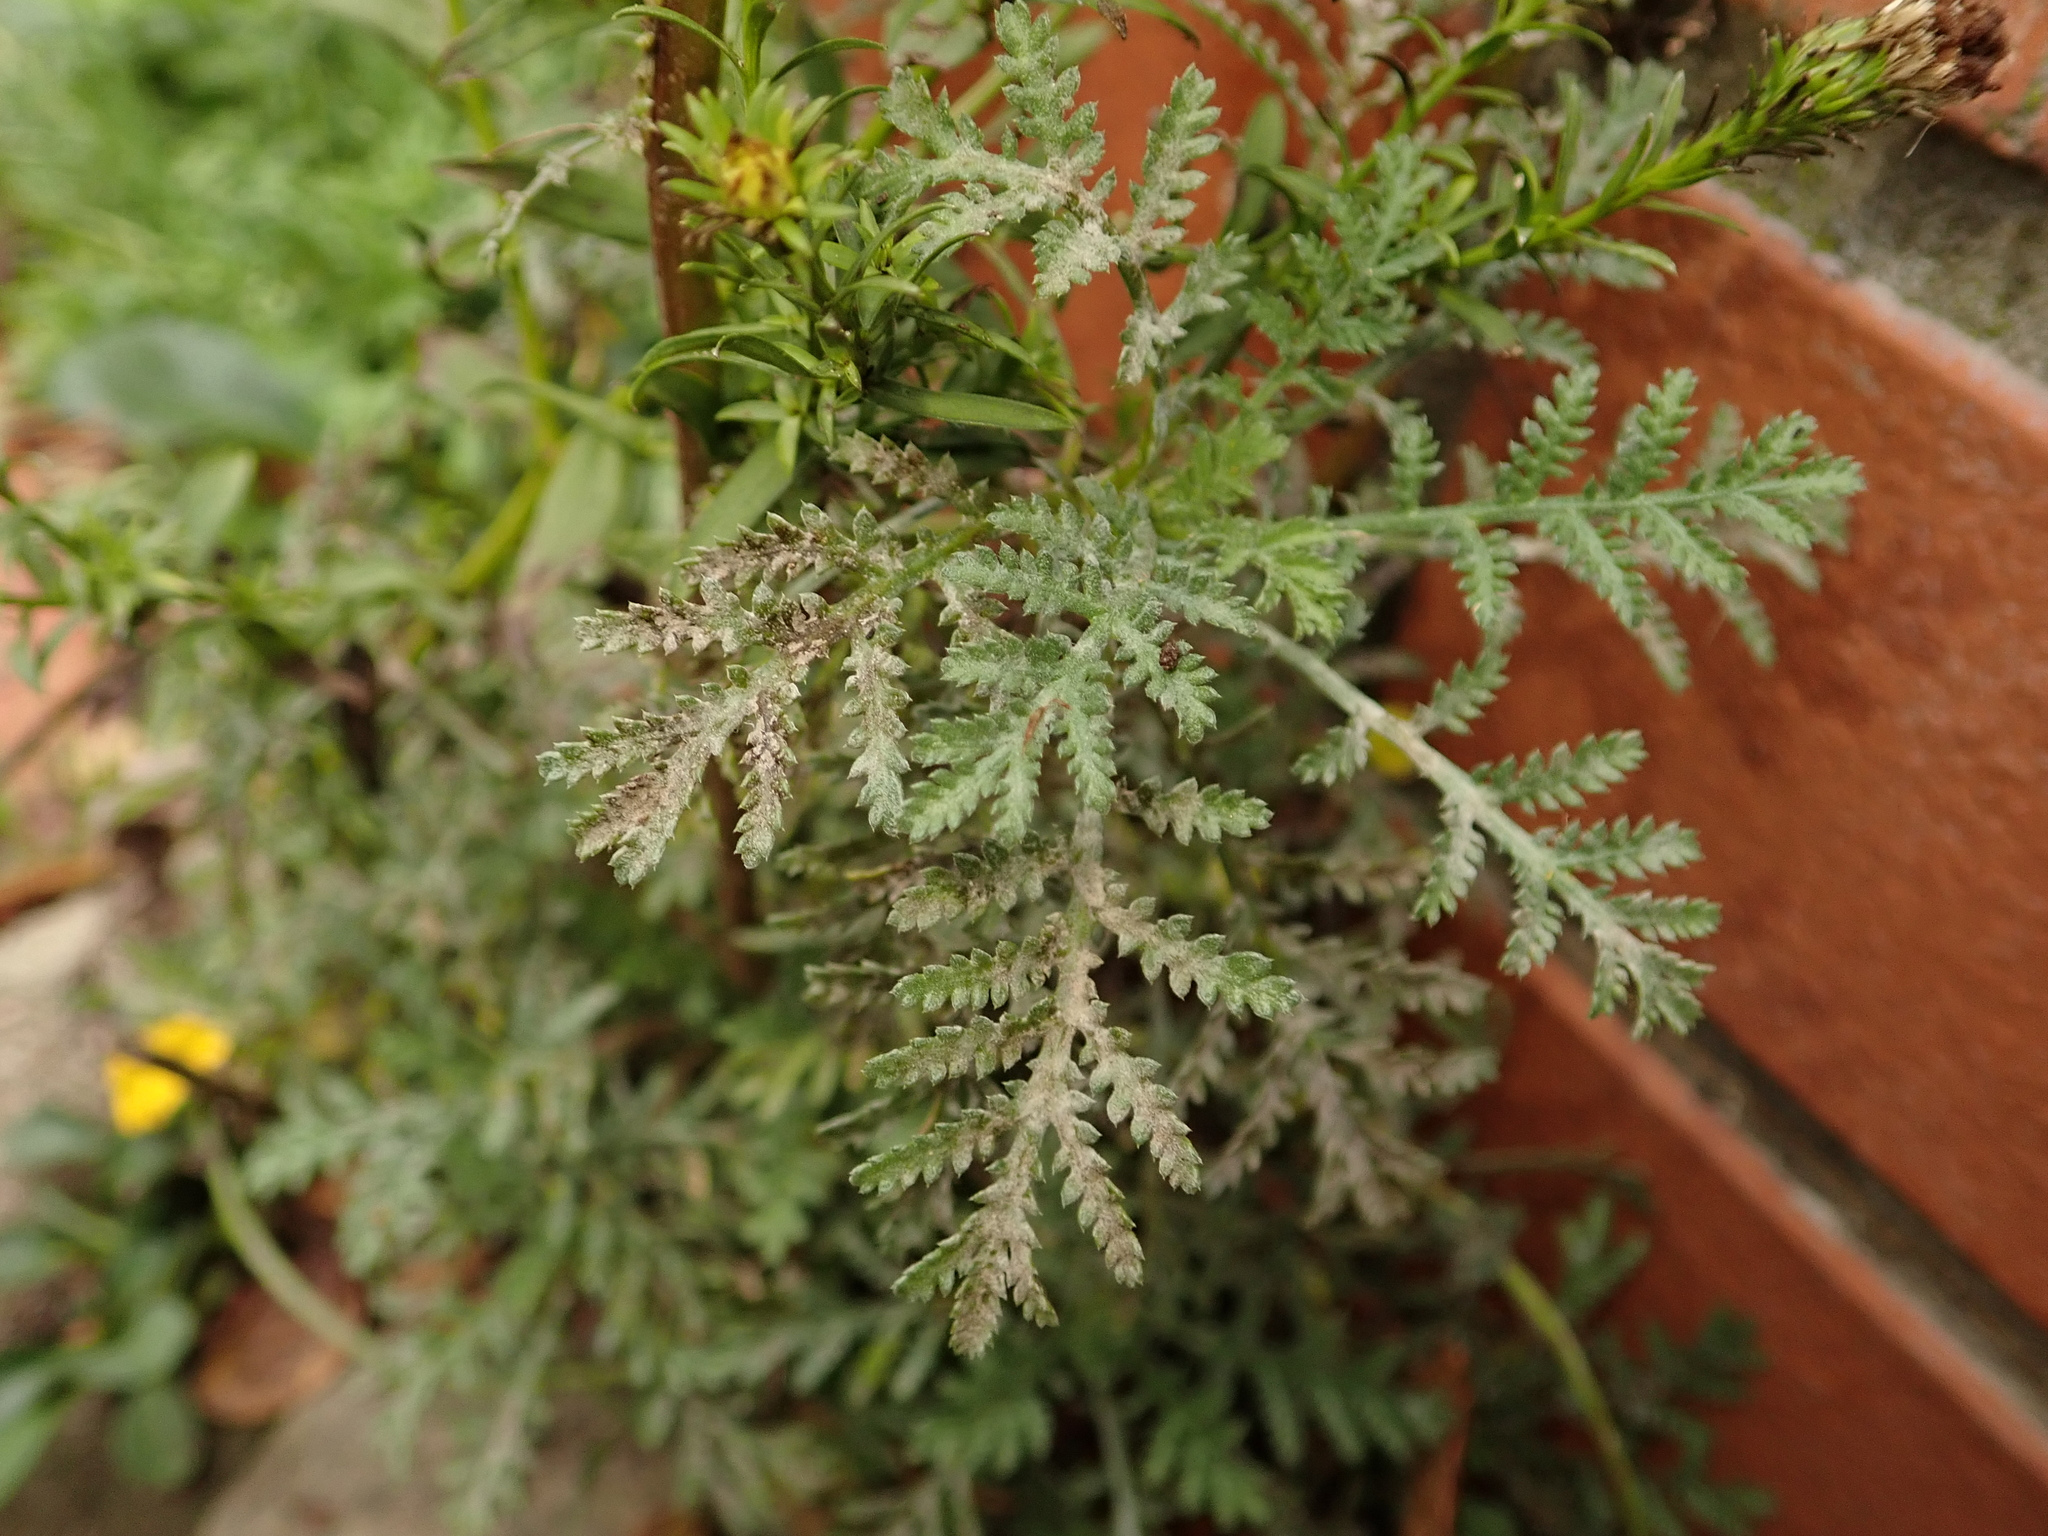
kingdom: Plantae
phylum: Tracheophyta
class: Magnoliopsida
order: Boraginales
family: Hydrophyllaceae
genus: Phacelia
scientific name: Phacelia tanacetifolia
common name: Phacelia
